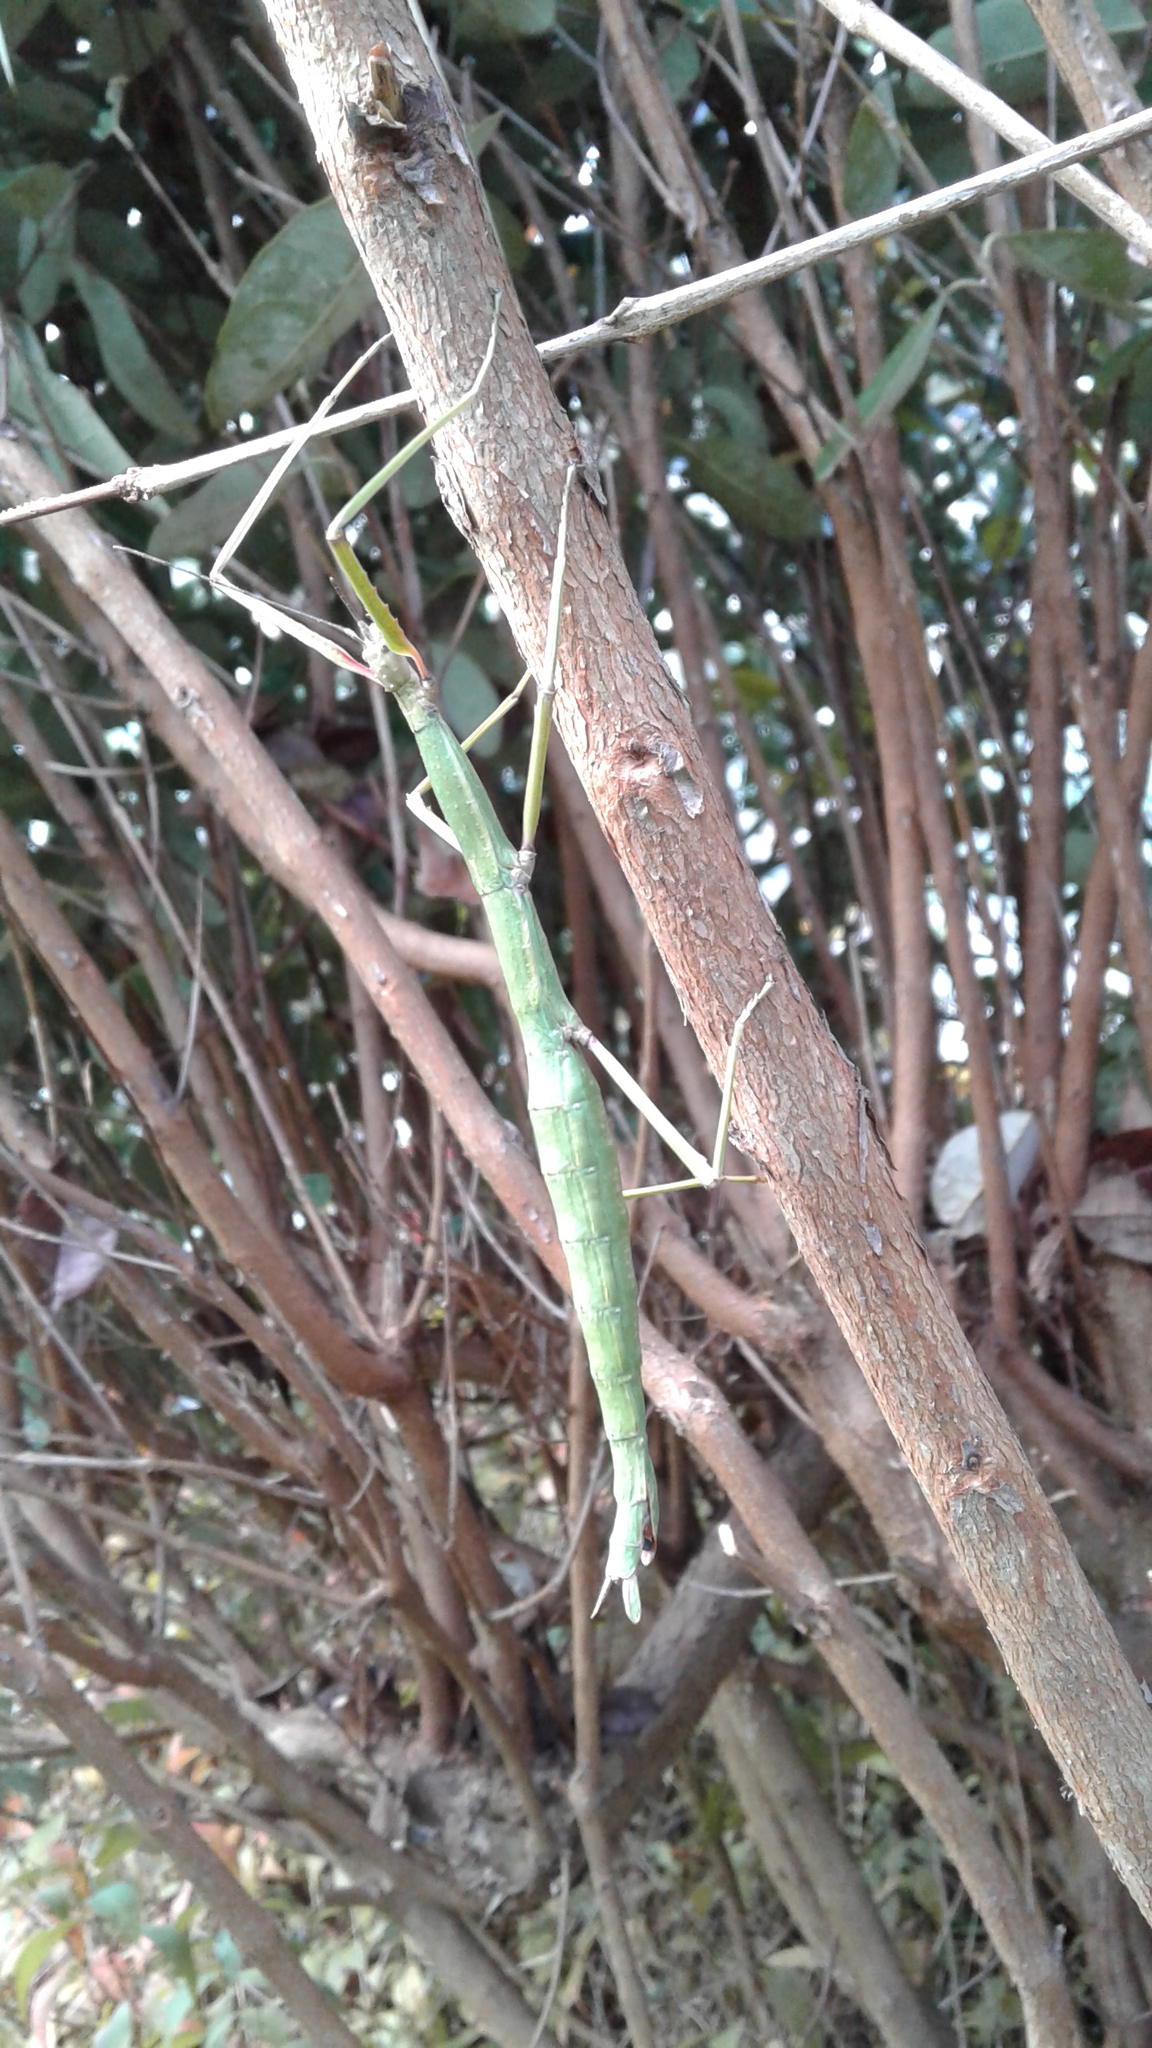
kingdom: Animalia
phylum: Arthropoda
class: Insecta
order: Phasmida
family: Phasmatidae
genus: Clitarchus
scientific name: Clitarchus hookeri
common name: Smooth stick insect
